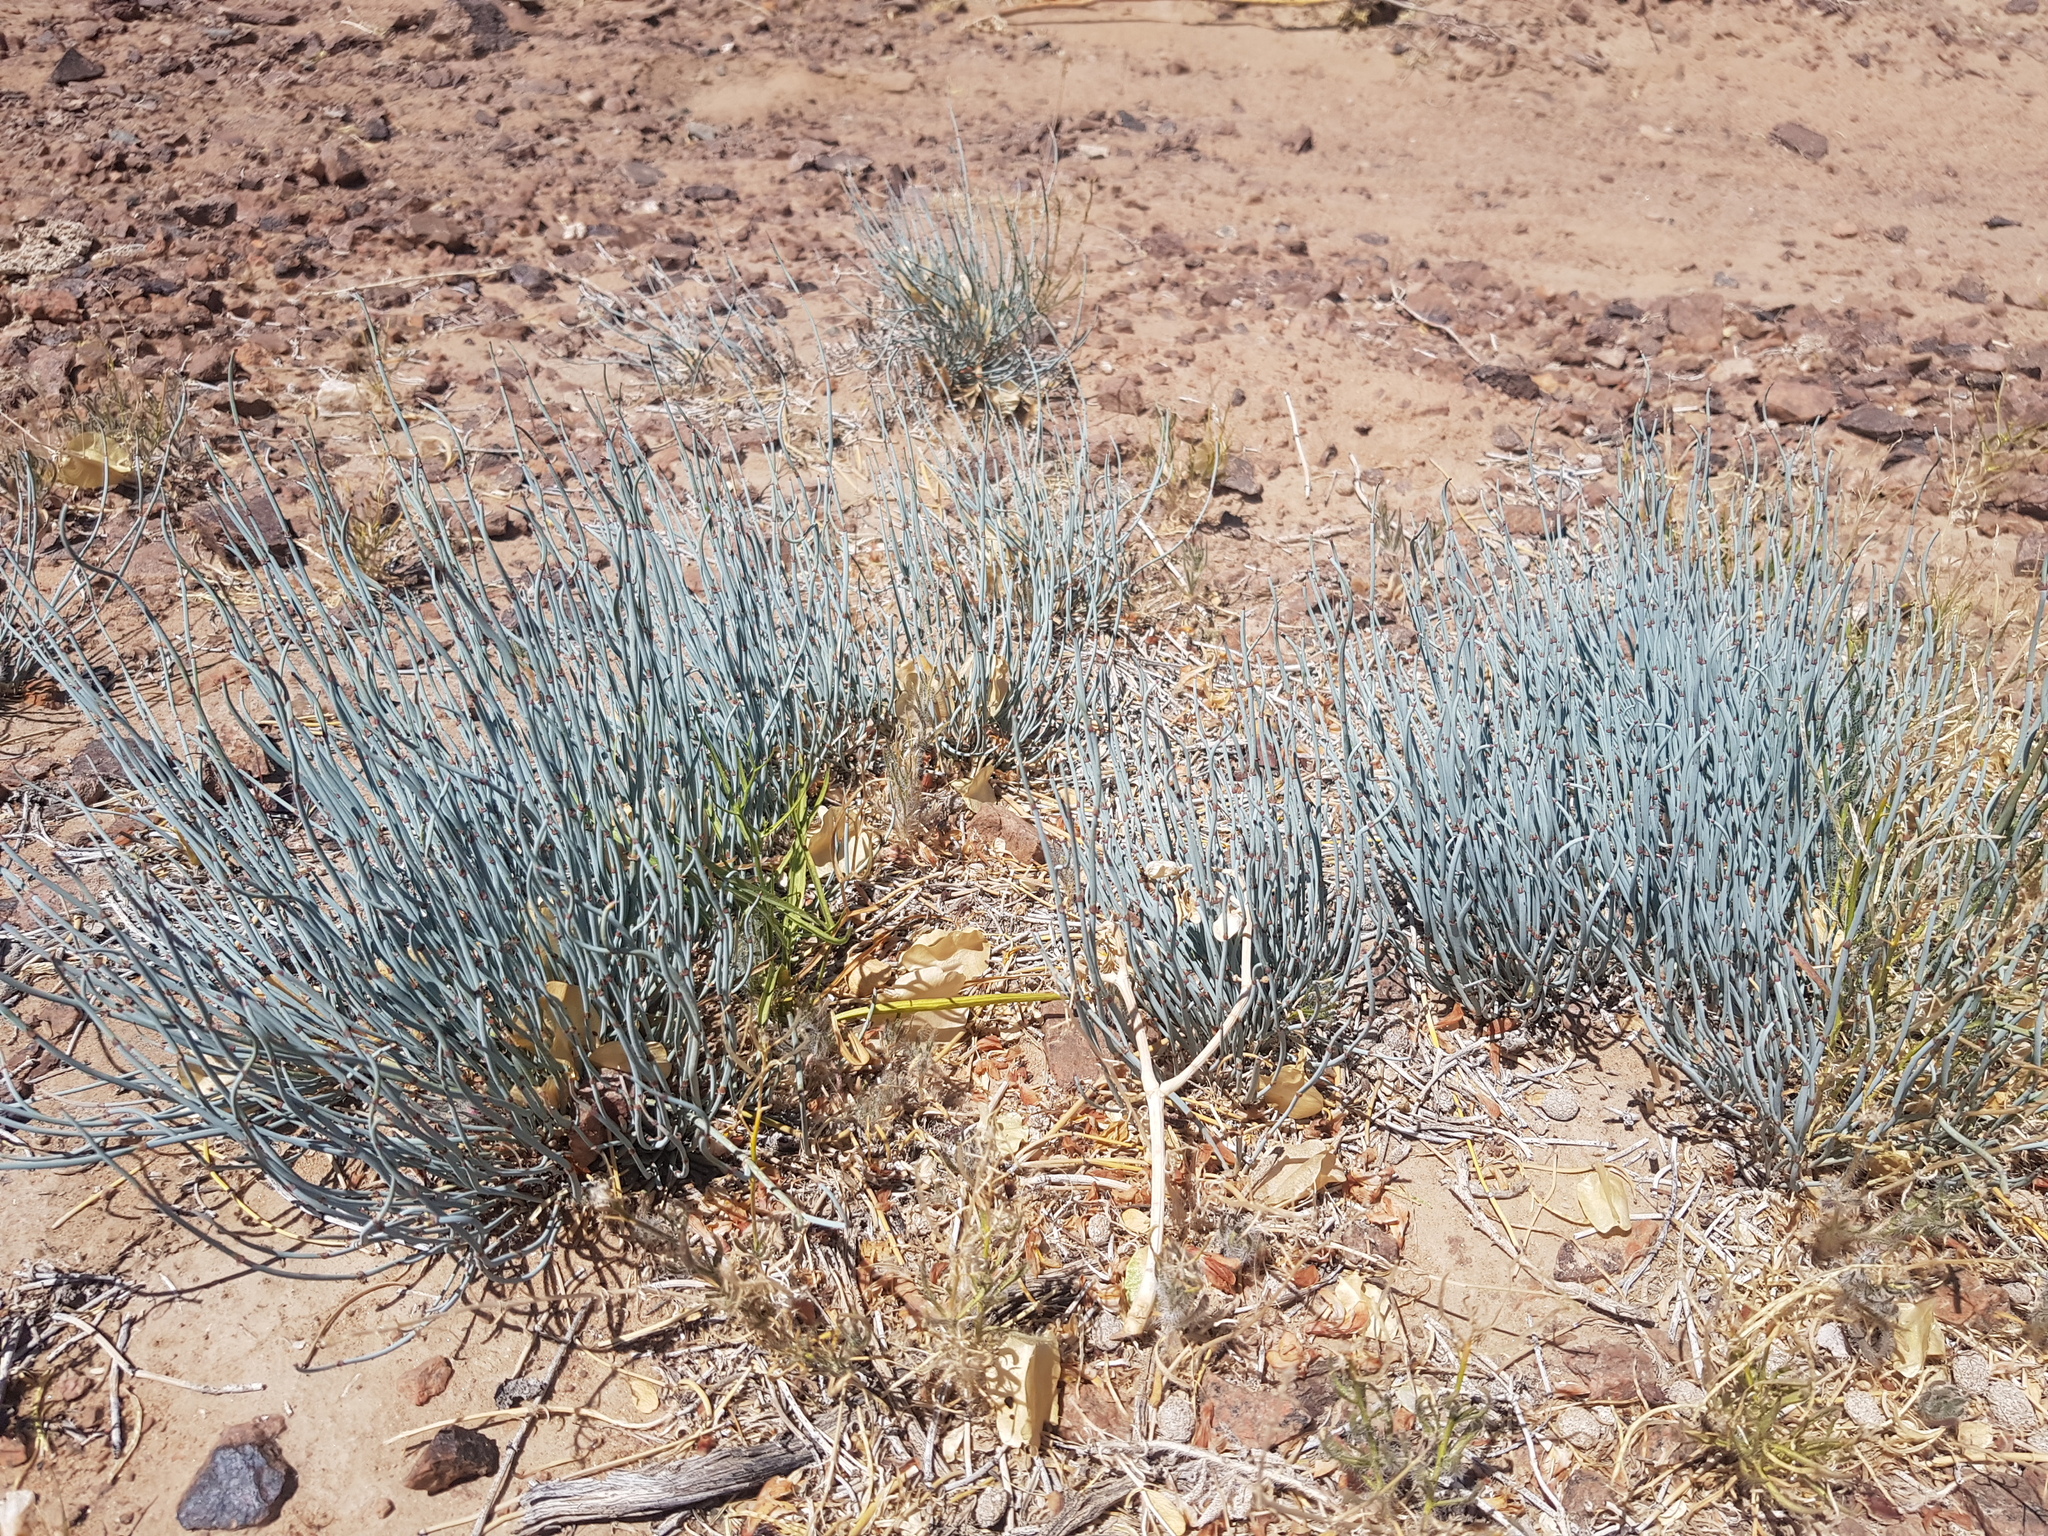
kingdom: Plantae
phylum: Tracheophyta
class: Gnetopsida
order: Ephedrales
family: Ephedraceae
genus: Ephedra
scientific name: Ephedra intermedia
